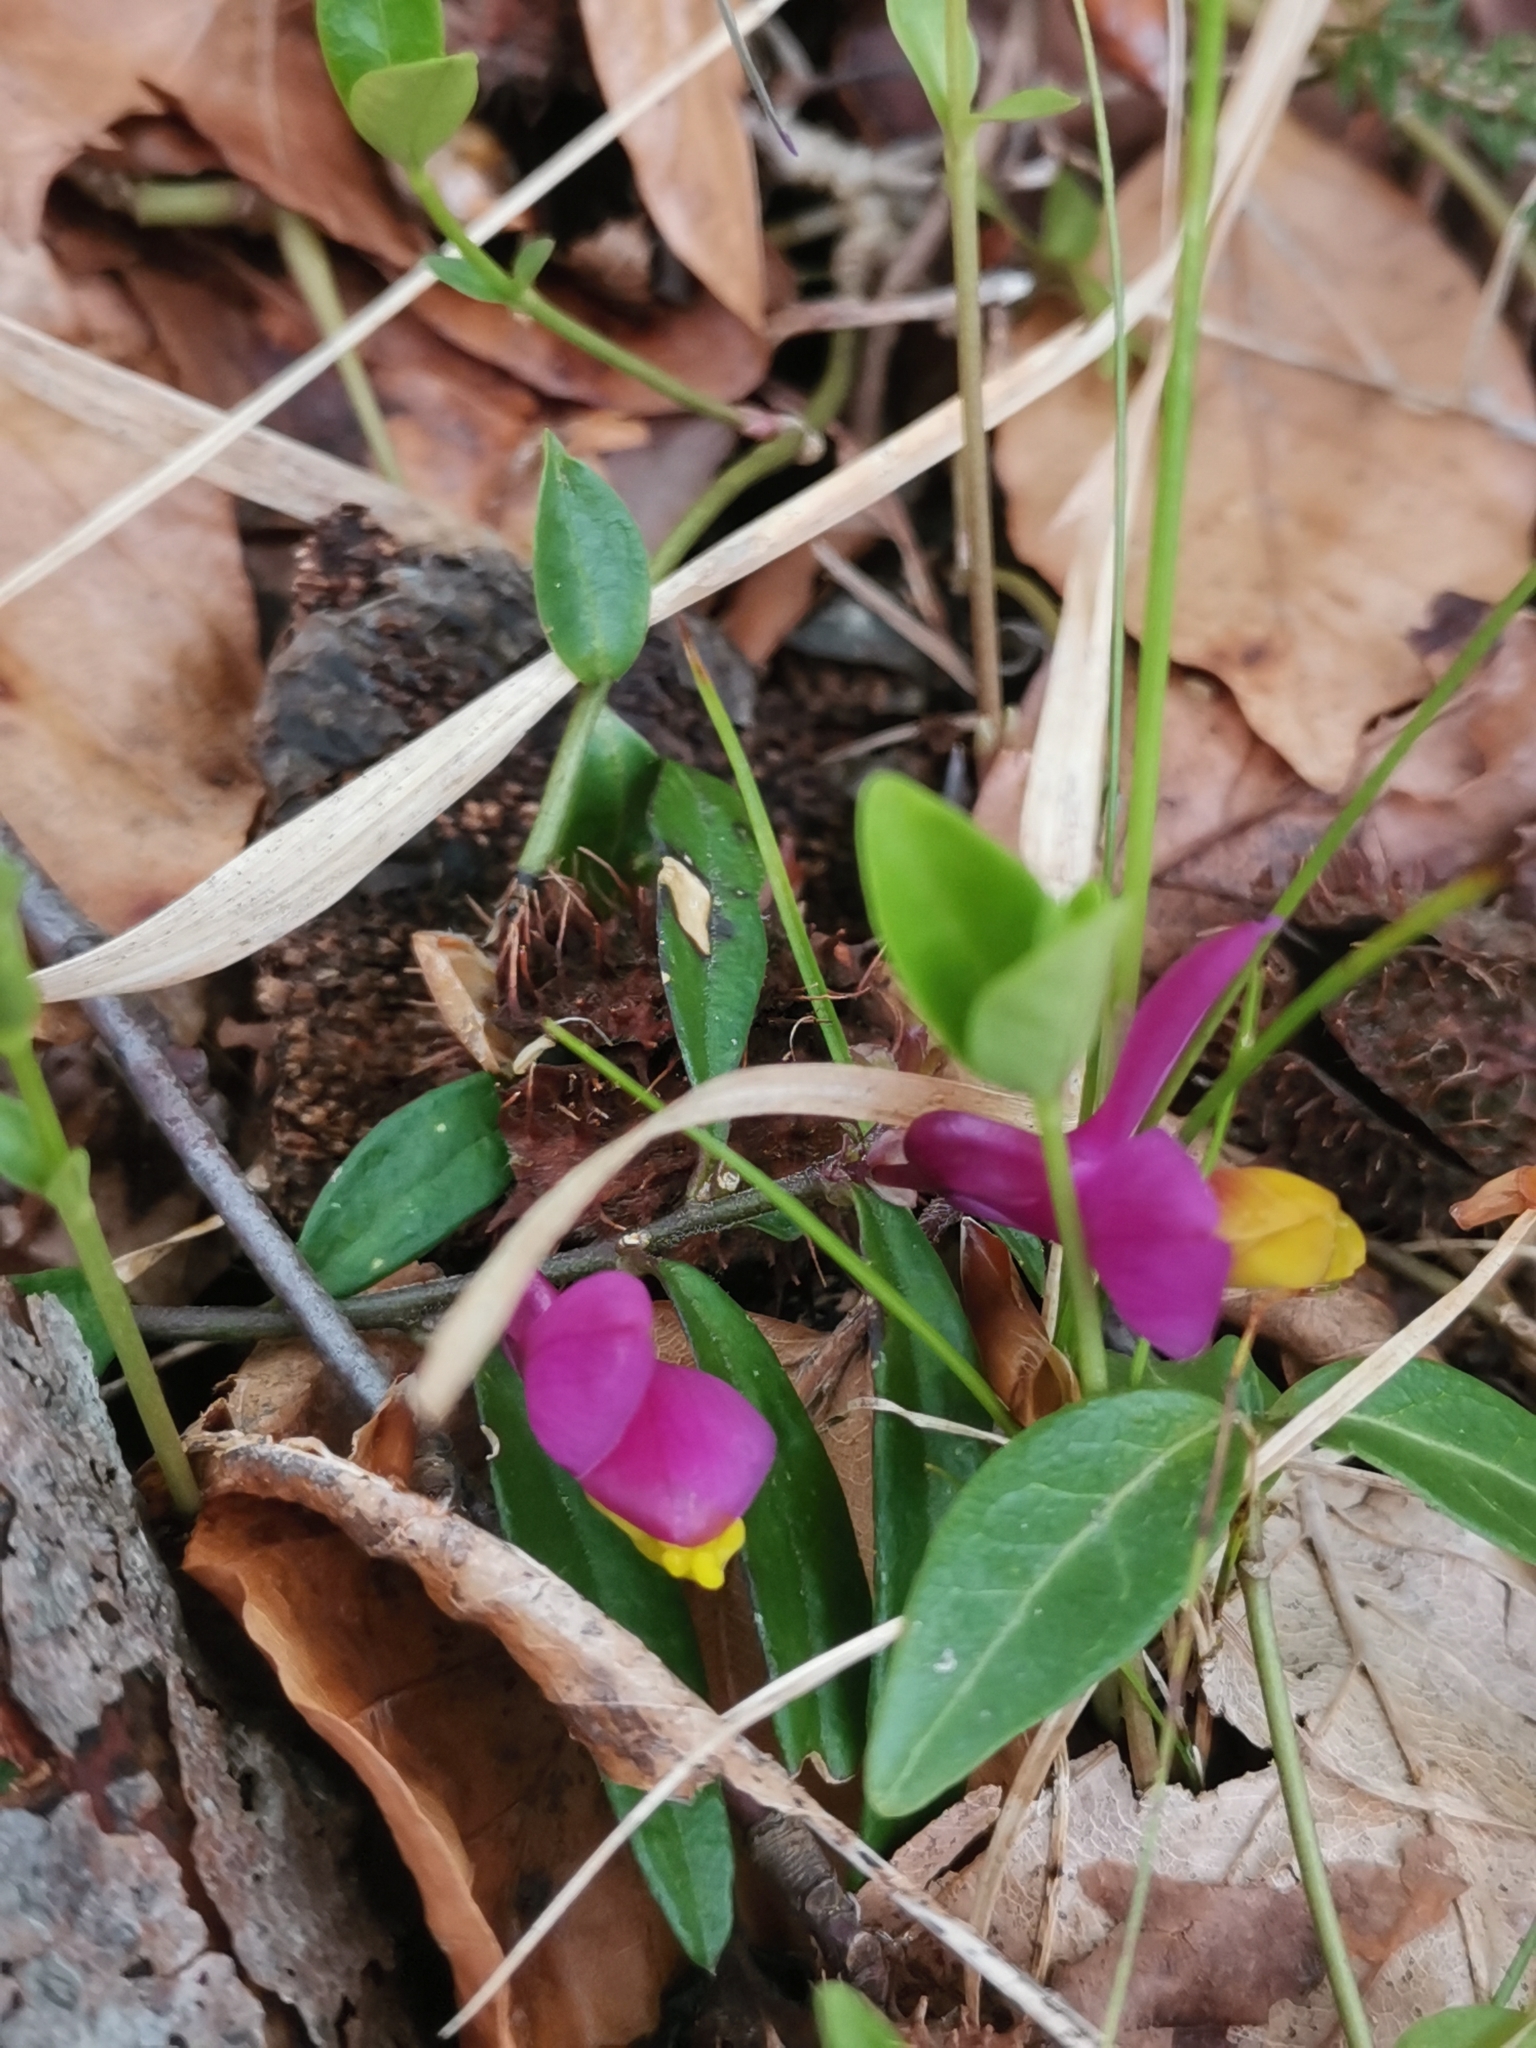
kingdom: Plantae
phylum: Tracheophyta
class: Magnoliopsida
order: Fabales
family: Polygalaceae
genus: Polygaloides
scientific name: Polygaloides chamaebuxus
